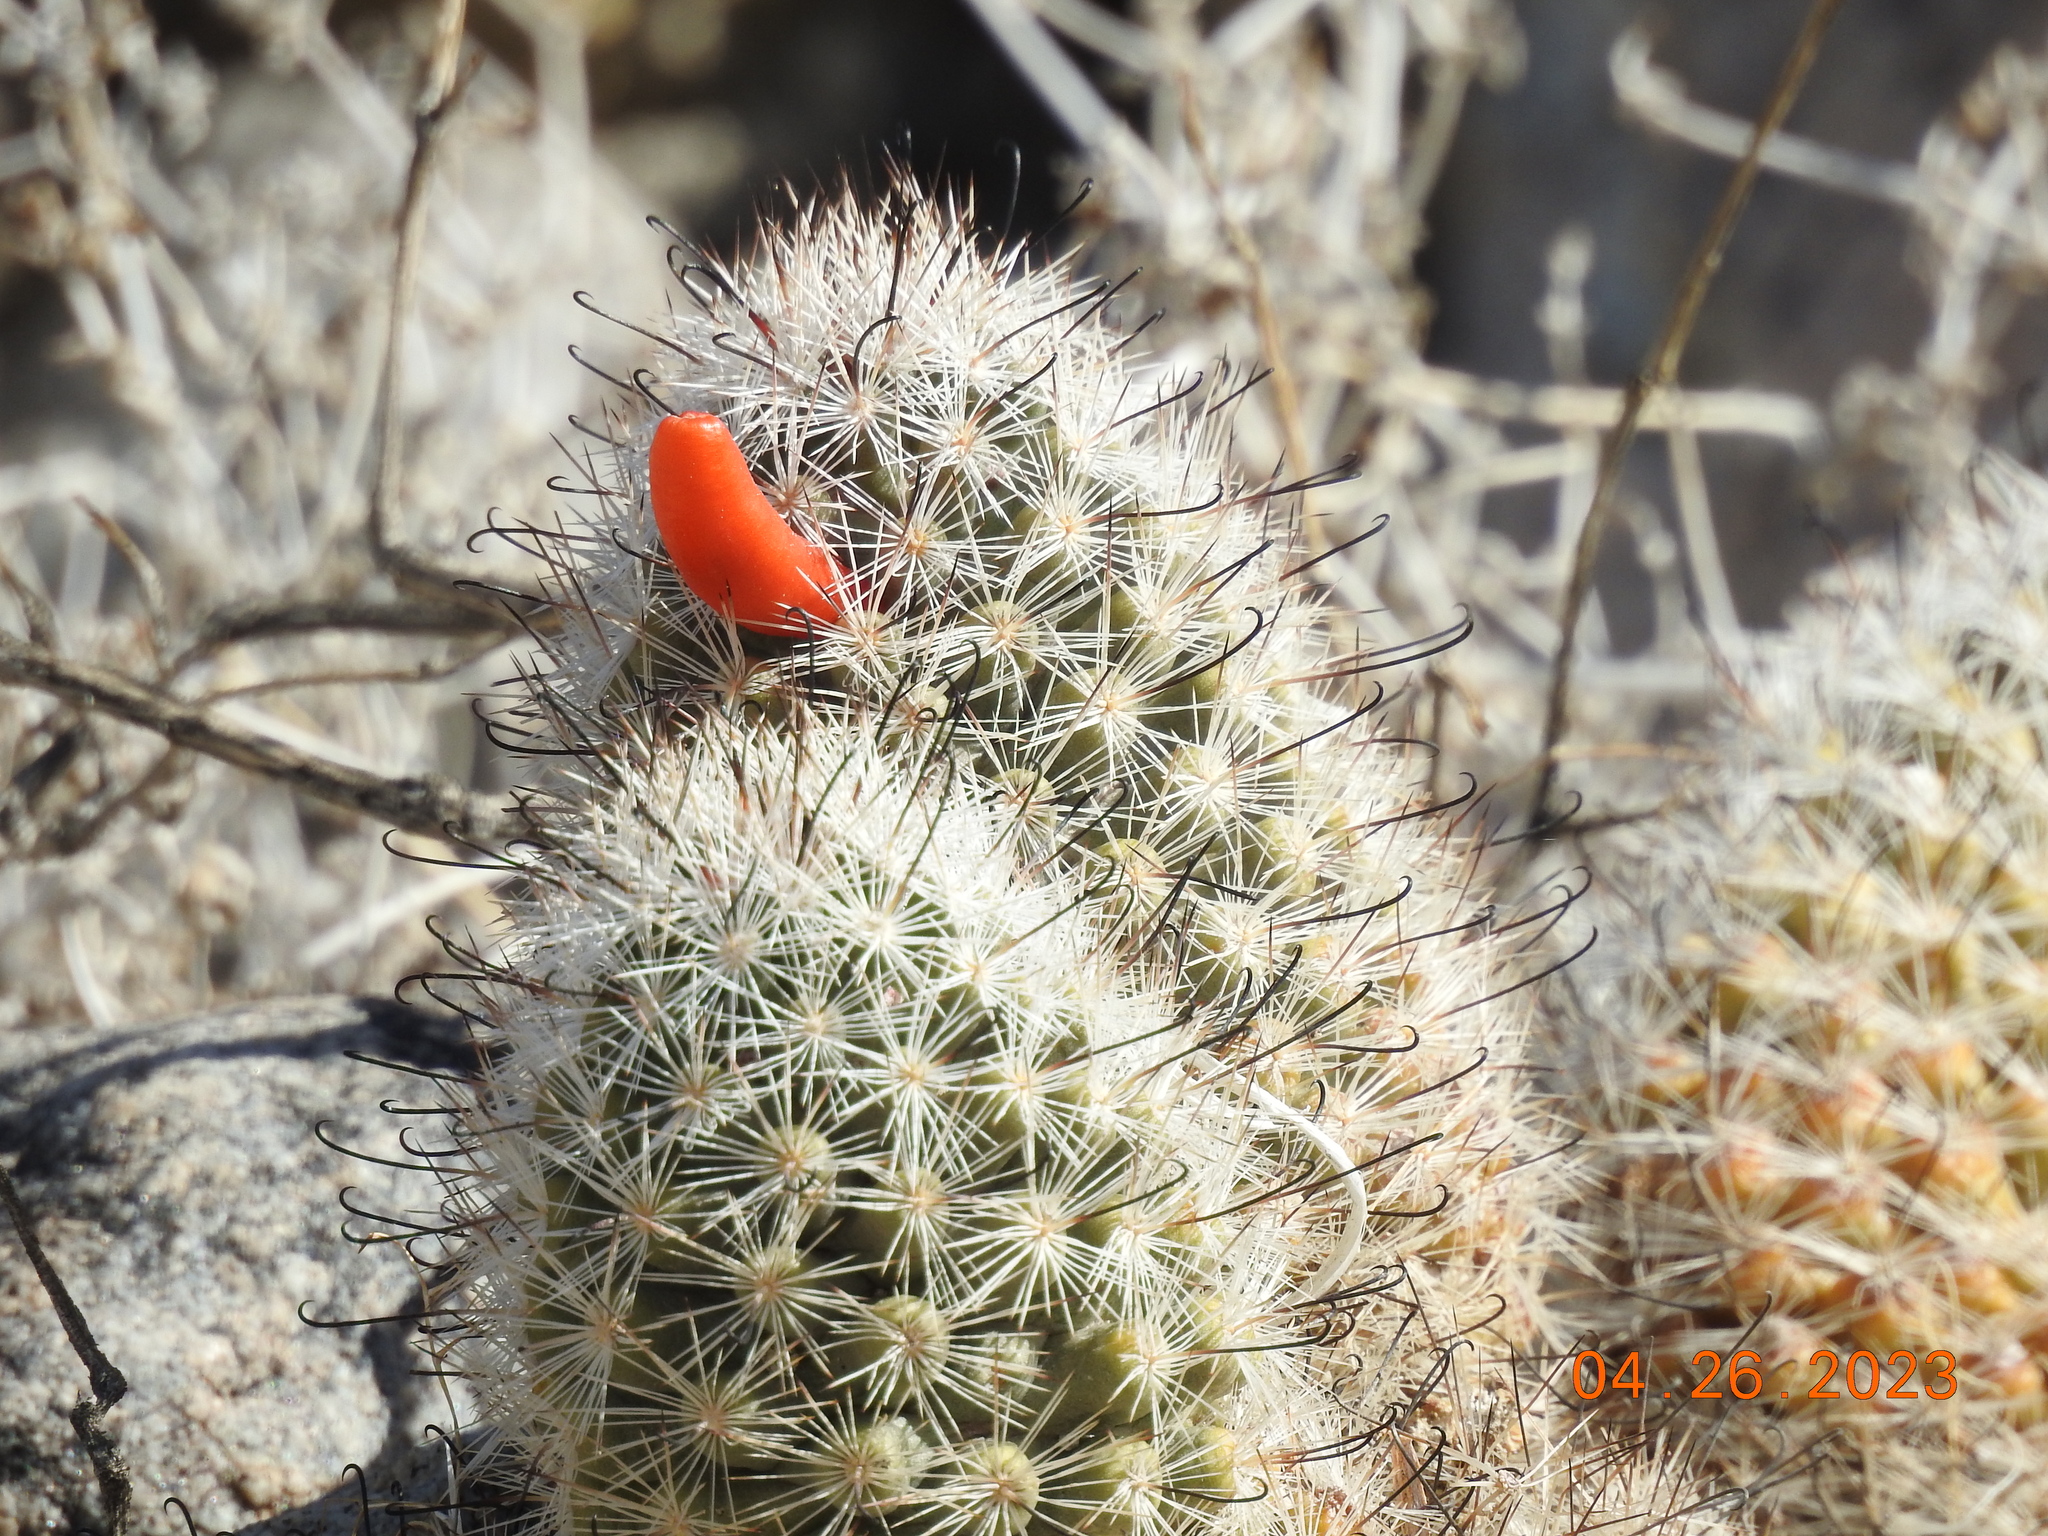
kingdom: Plantae
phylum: Tracheophyta
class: Magnoliopsida
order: Caryophyllales
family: Cactaceae
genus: Cochemiea
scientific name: Cochemiea tetrancistra
